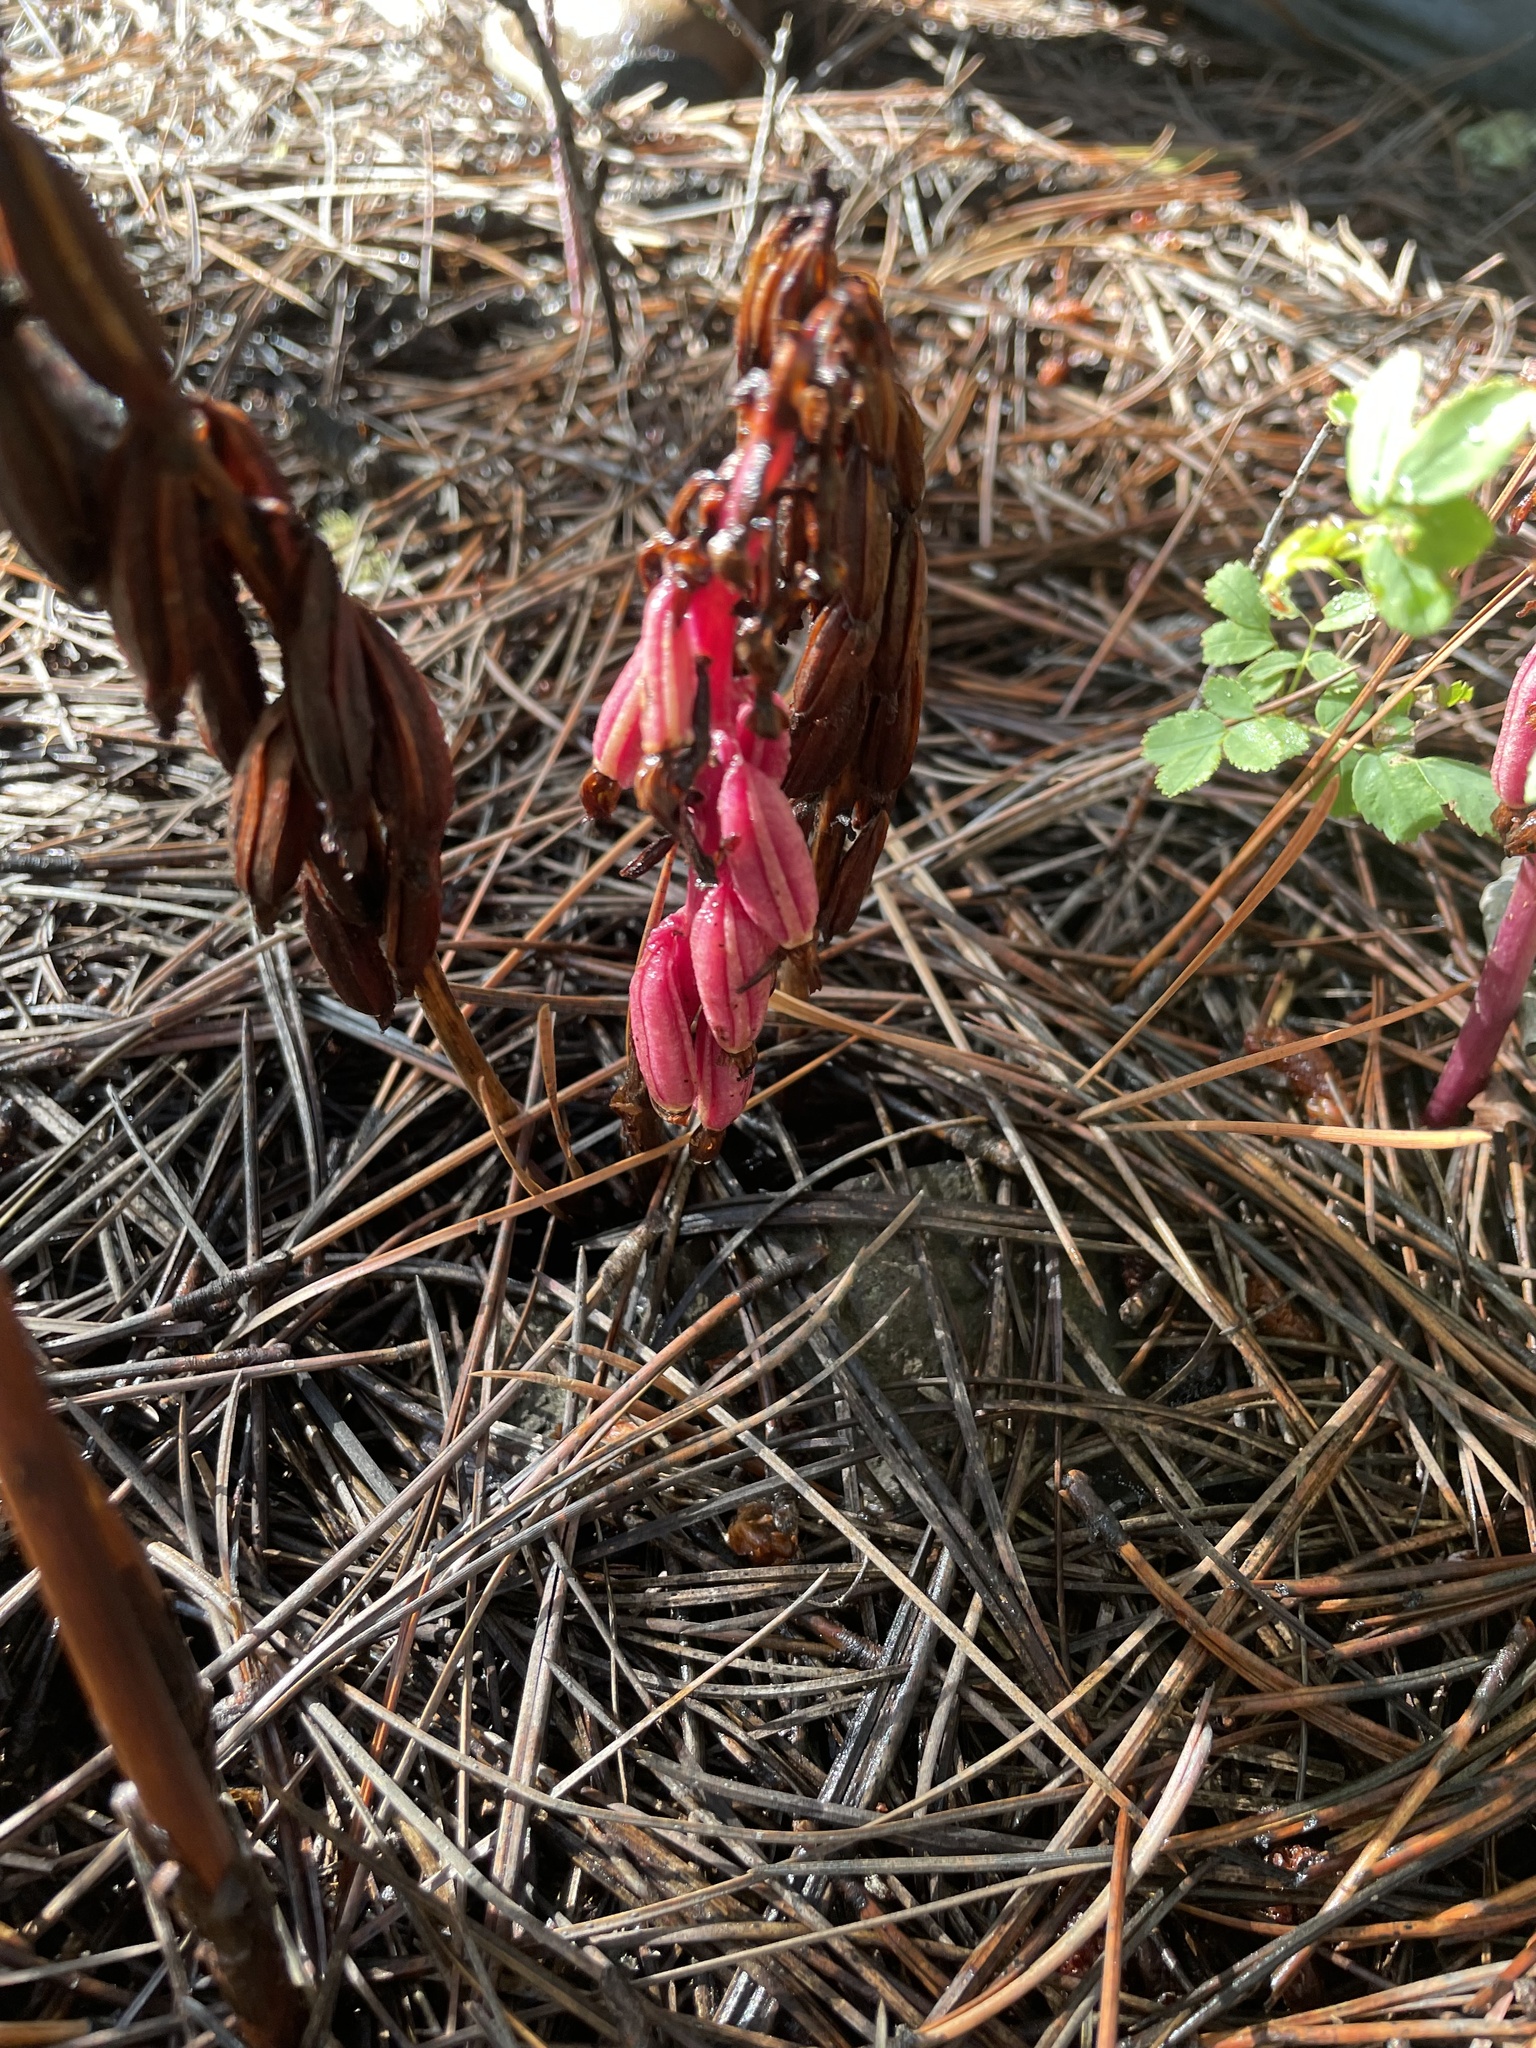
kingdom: Plantae
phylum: Tracheophyta
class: Liliopsida
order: Asparagales
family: Orchidaceae
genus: Corallorhiza
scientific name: Corallorhiza maculata
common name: Spotted coralroot
